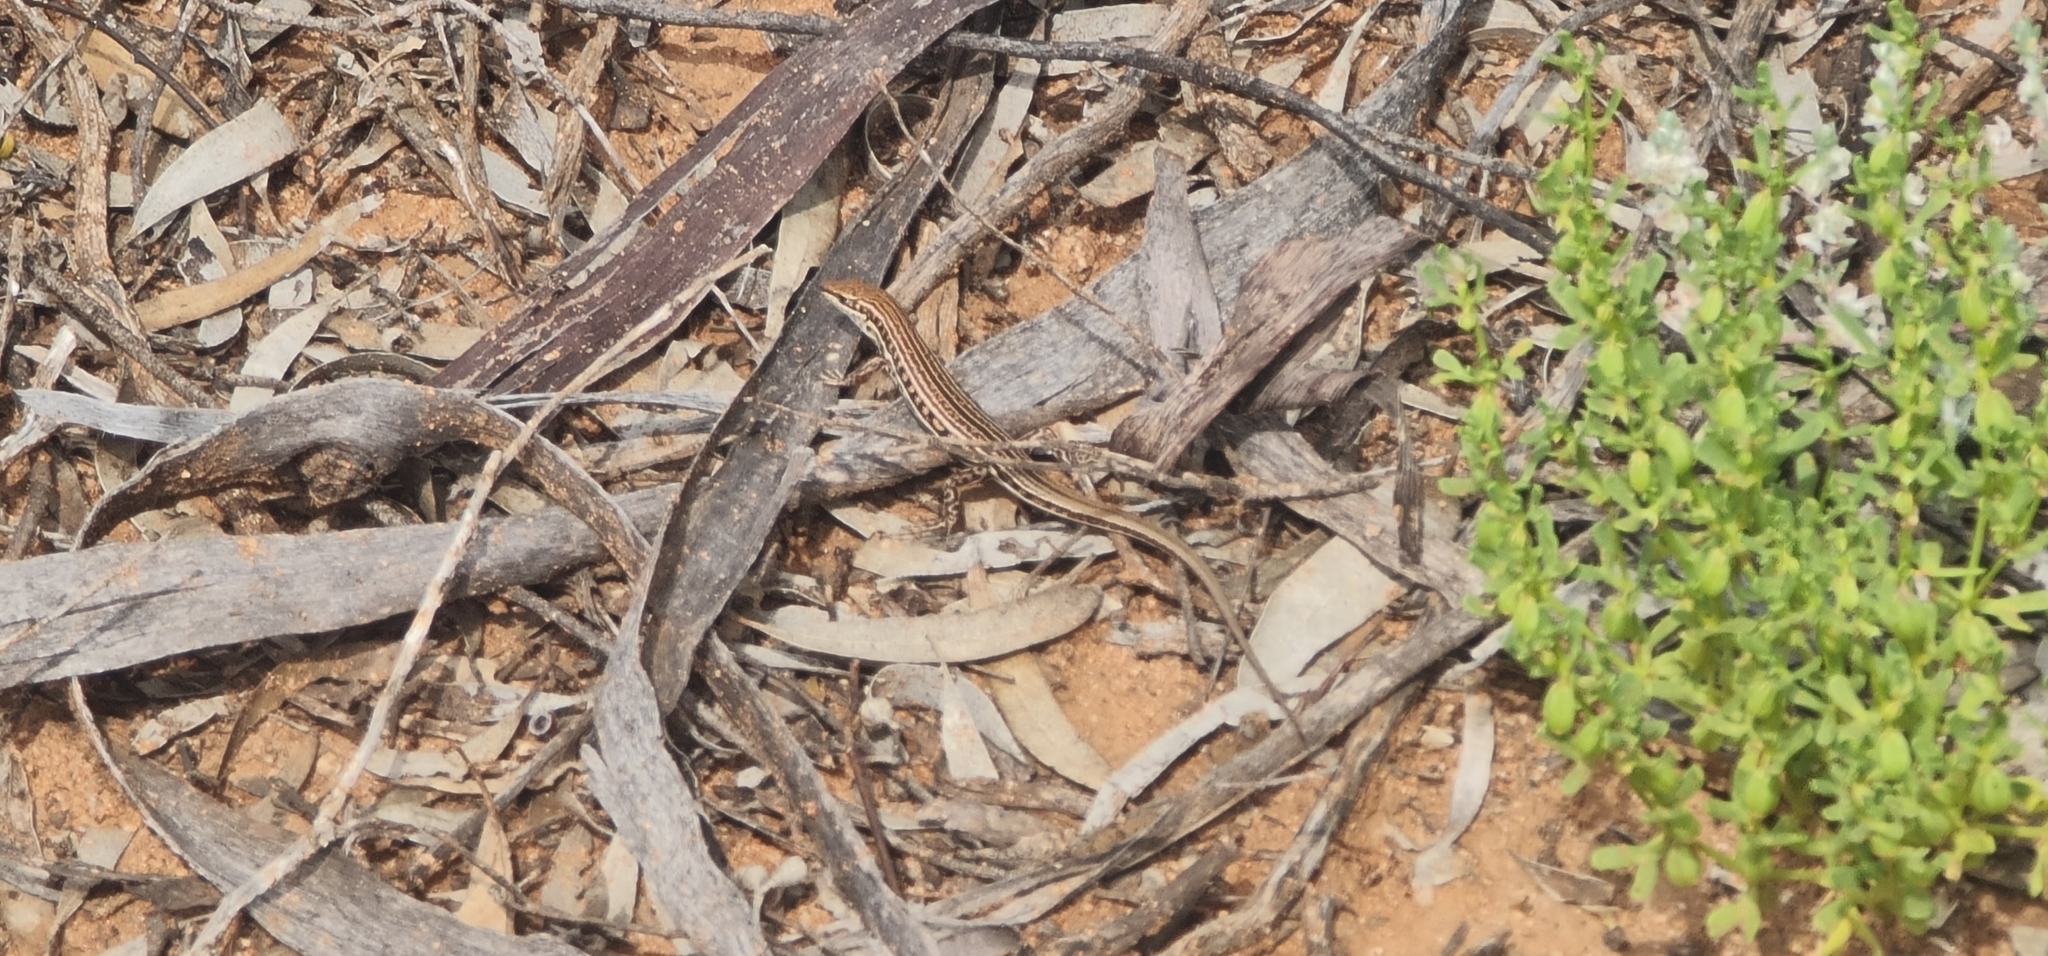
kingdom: Animalia
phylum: Chordata
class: Squamata
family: Scincidae
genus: Ctenotus
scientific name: Ctenotus schomburgkii
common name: Barred wedge-snout ctenotus
